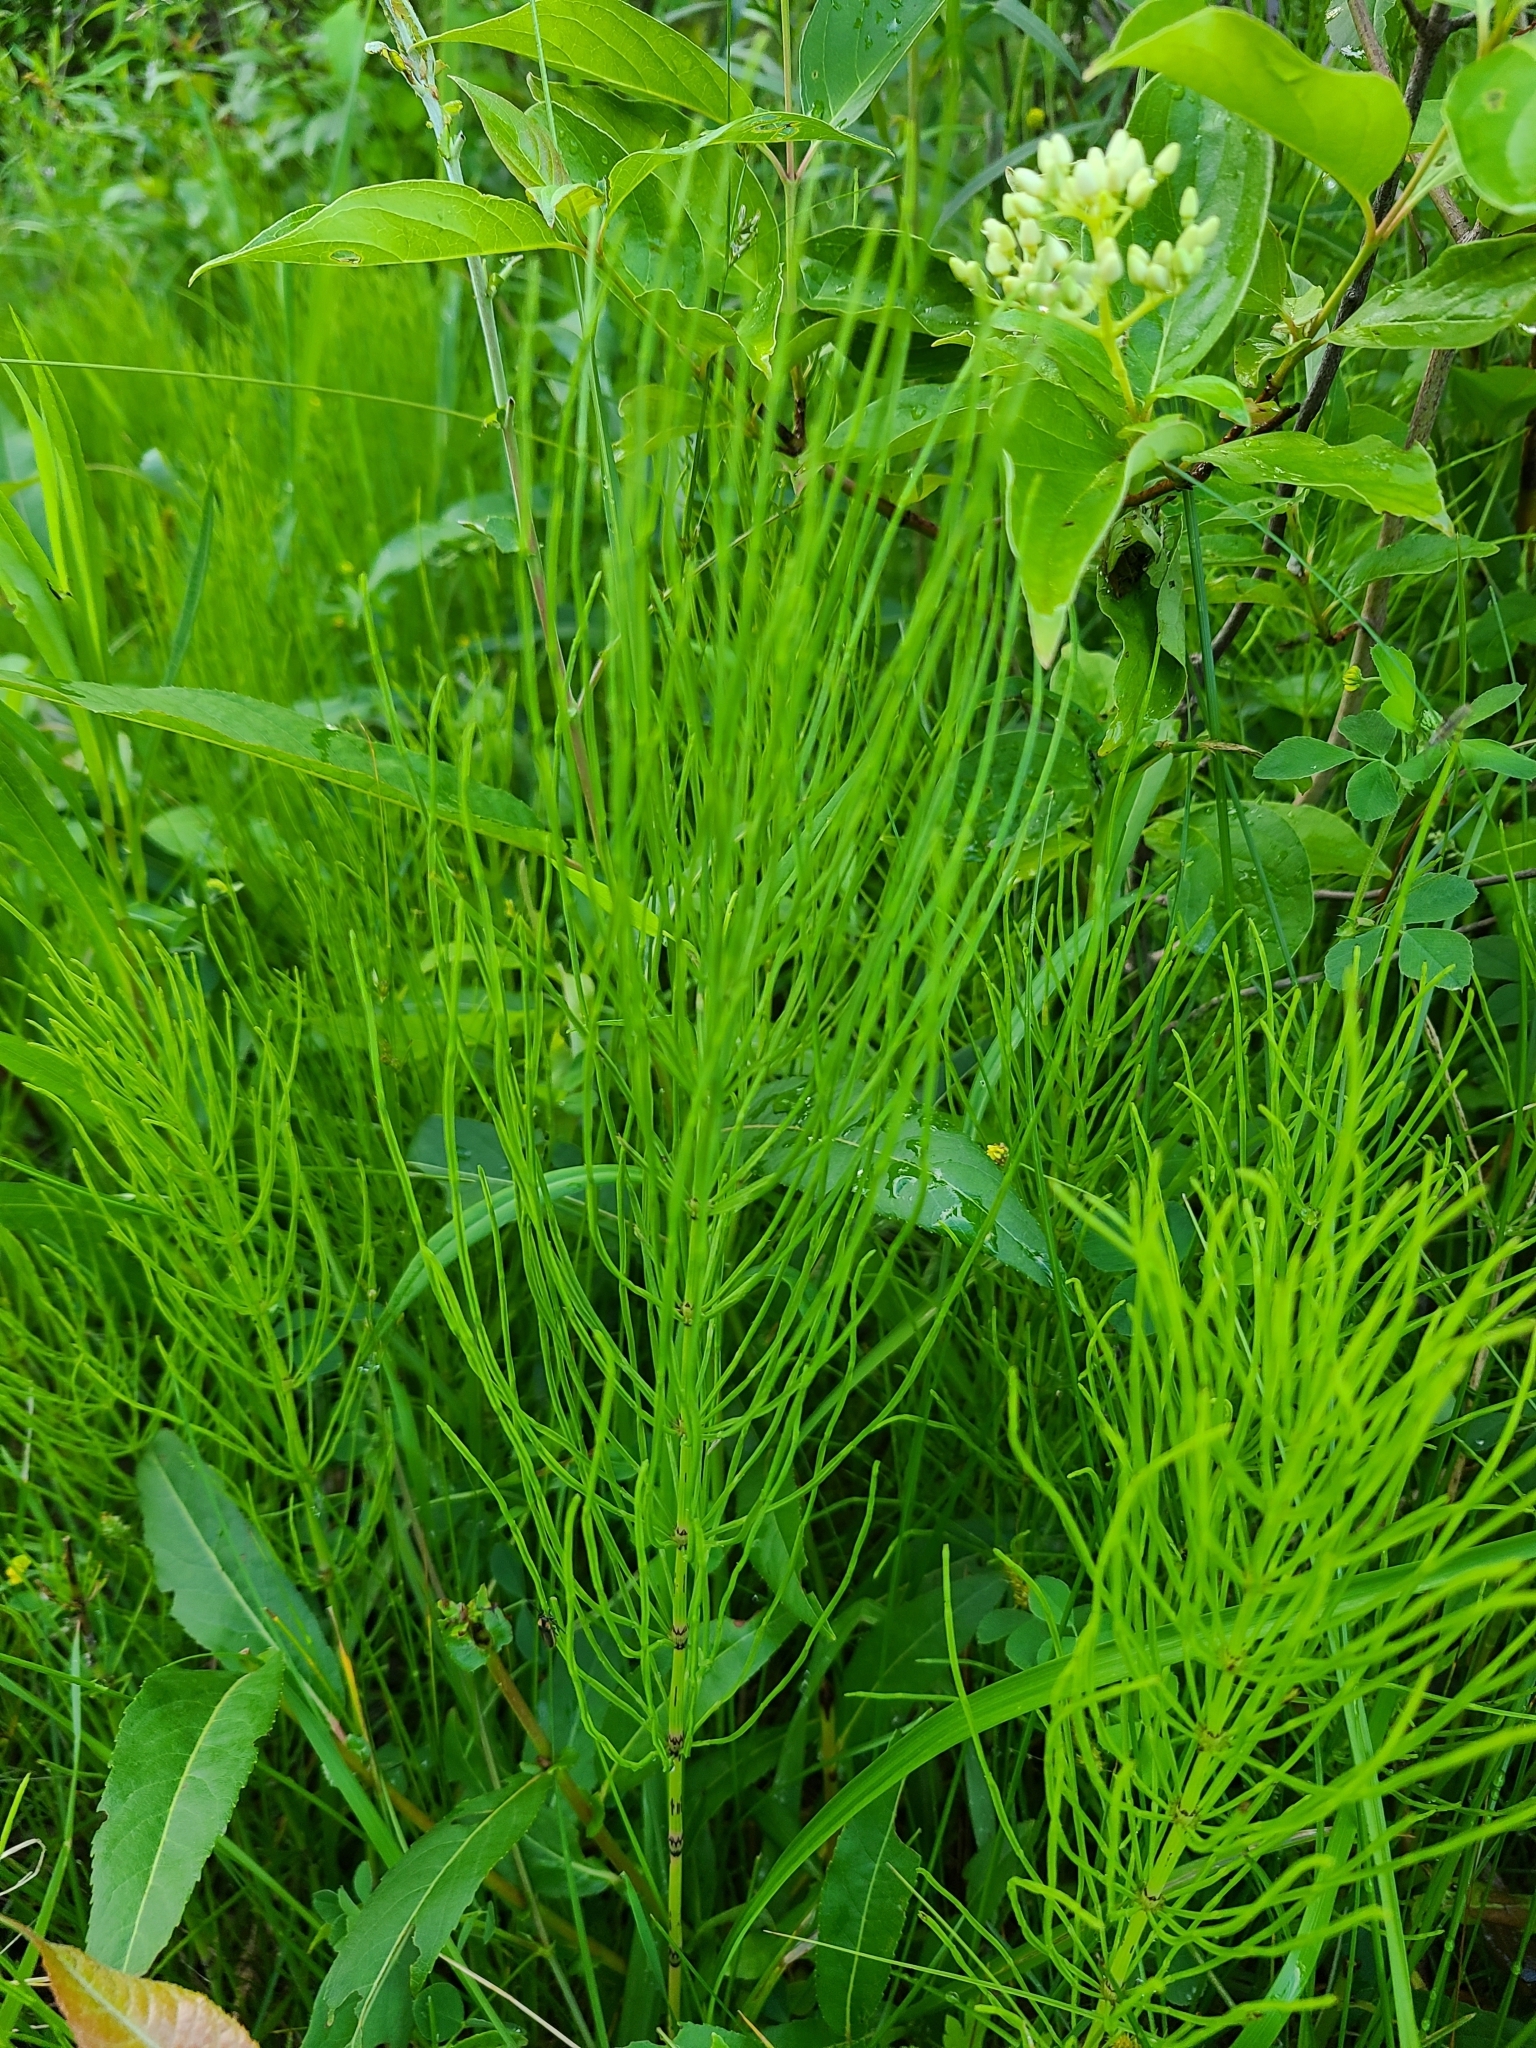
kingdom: Plantae
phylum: Tracheophyta
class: Polypodiopsida
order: Equisetales
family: Equisetaceae
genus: Equisetum
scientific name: Equisetum arvense
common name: Field horsetail
